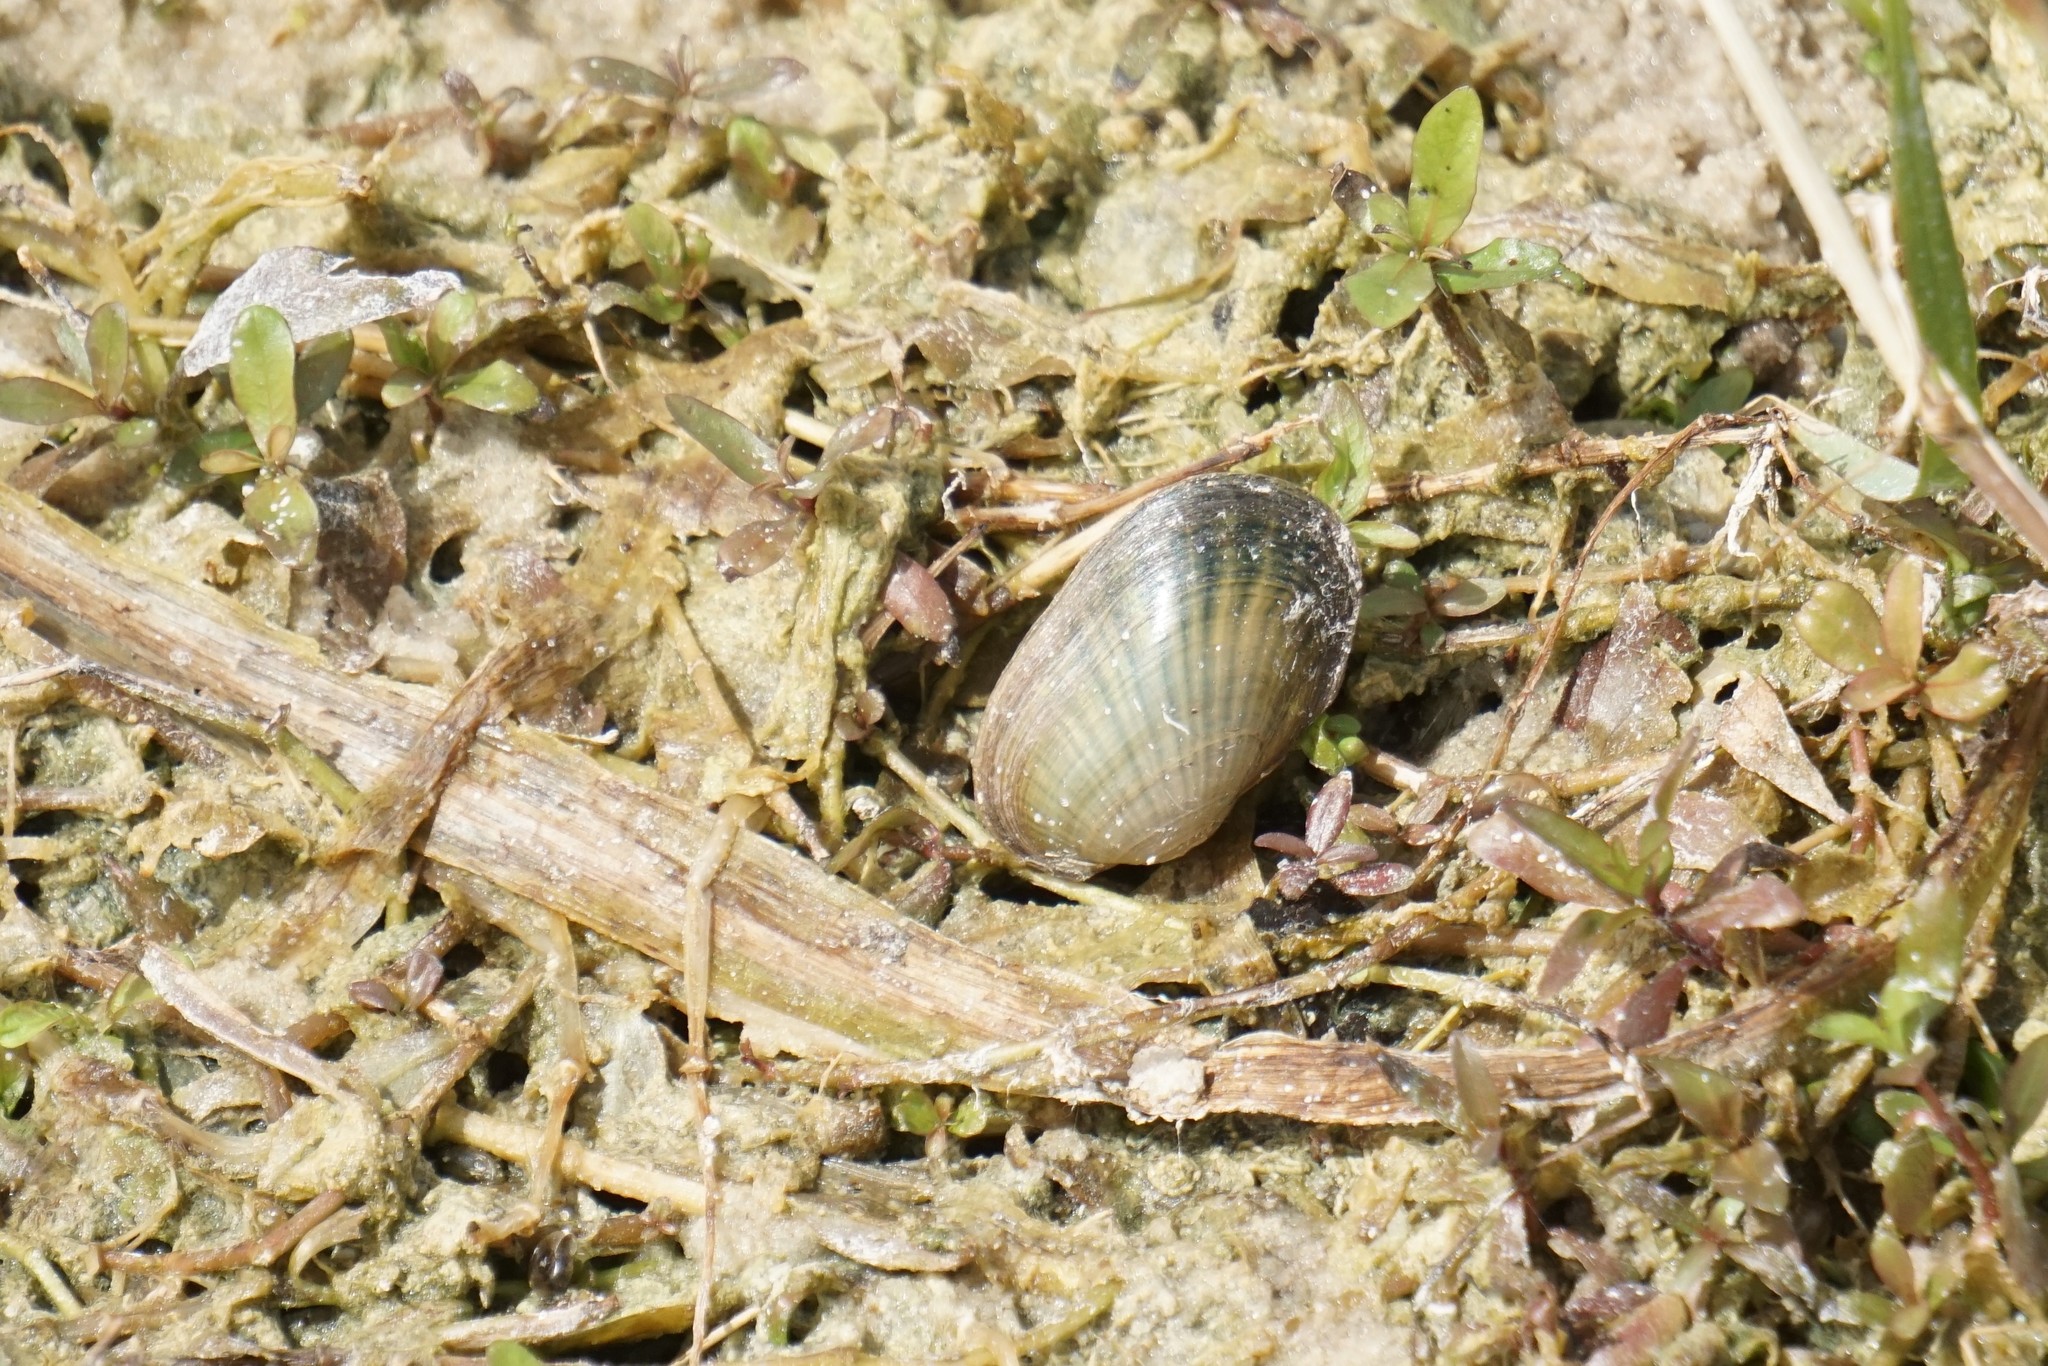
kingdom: Animalia
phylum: Mollusca
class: Bivalvia
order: Unionida
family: Unionidae
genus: Villosa
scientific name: Villosa amygdalum
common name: Florida rainbow
